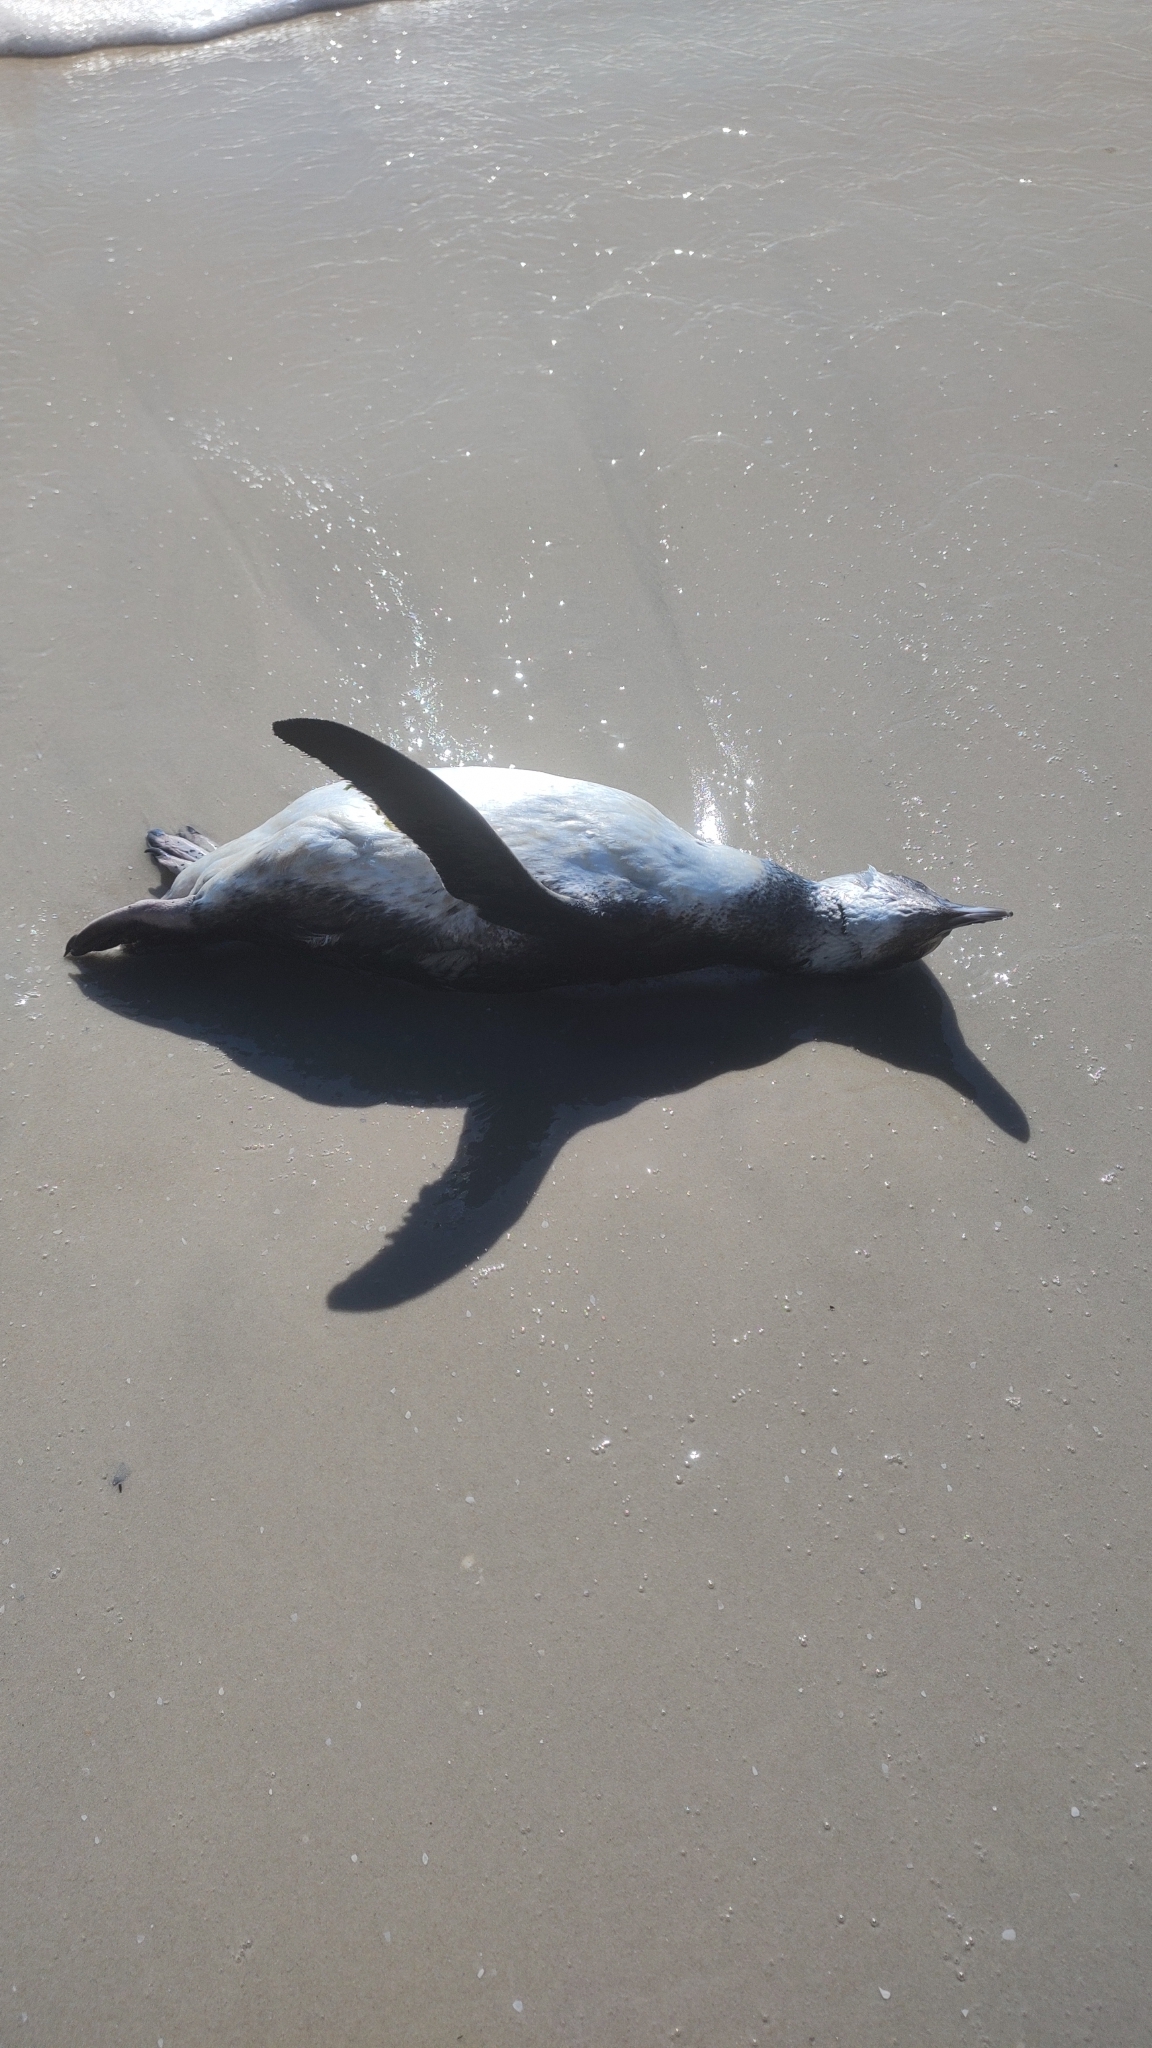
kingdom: Animalia
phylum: Chordata
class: Aves
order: Sphenisciformes
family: Spheniscidae
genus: Spheniscus
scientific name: Spheniscus magellanicus
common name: Magellanic penguin
